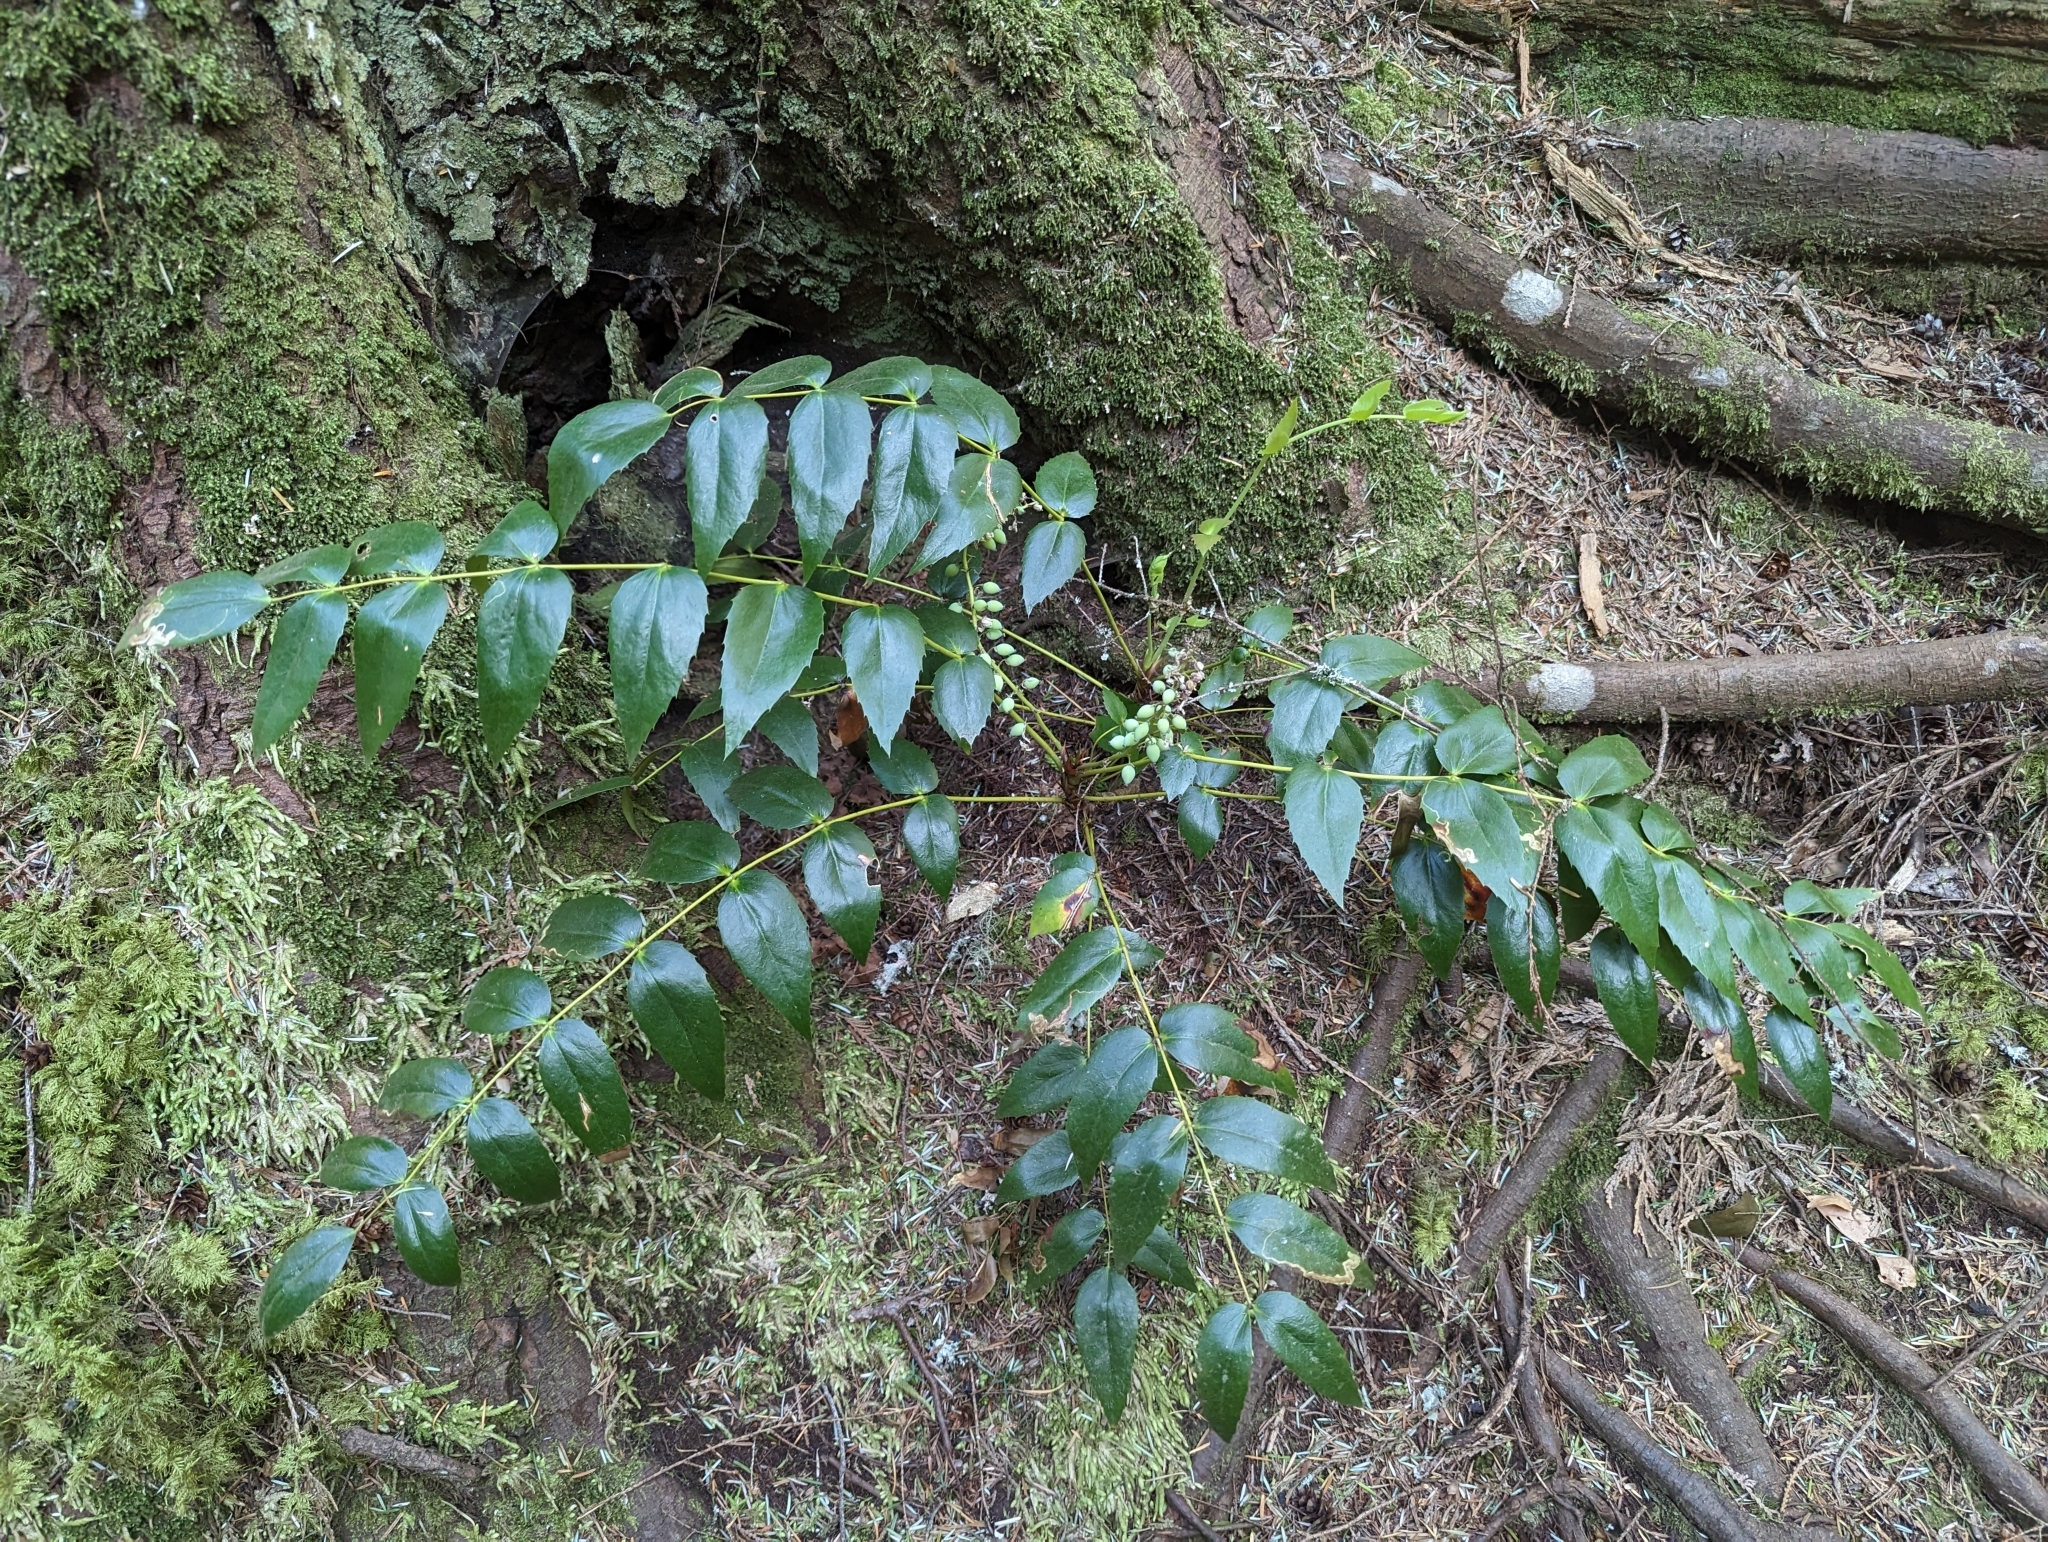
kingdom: Plantae
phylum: Tracheophyta
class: Magnoliopsida
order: Ranunculales
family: Berberidaceae
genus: Mahonia
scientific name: Mahonia nervosa
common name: Cascade oregon-grape
